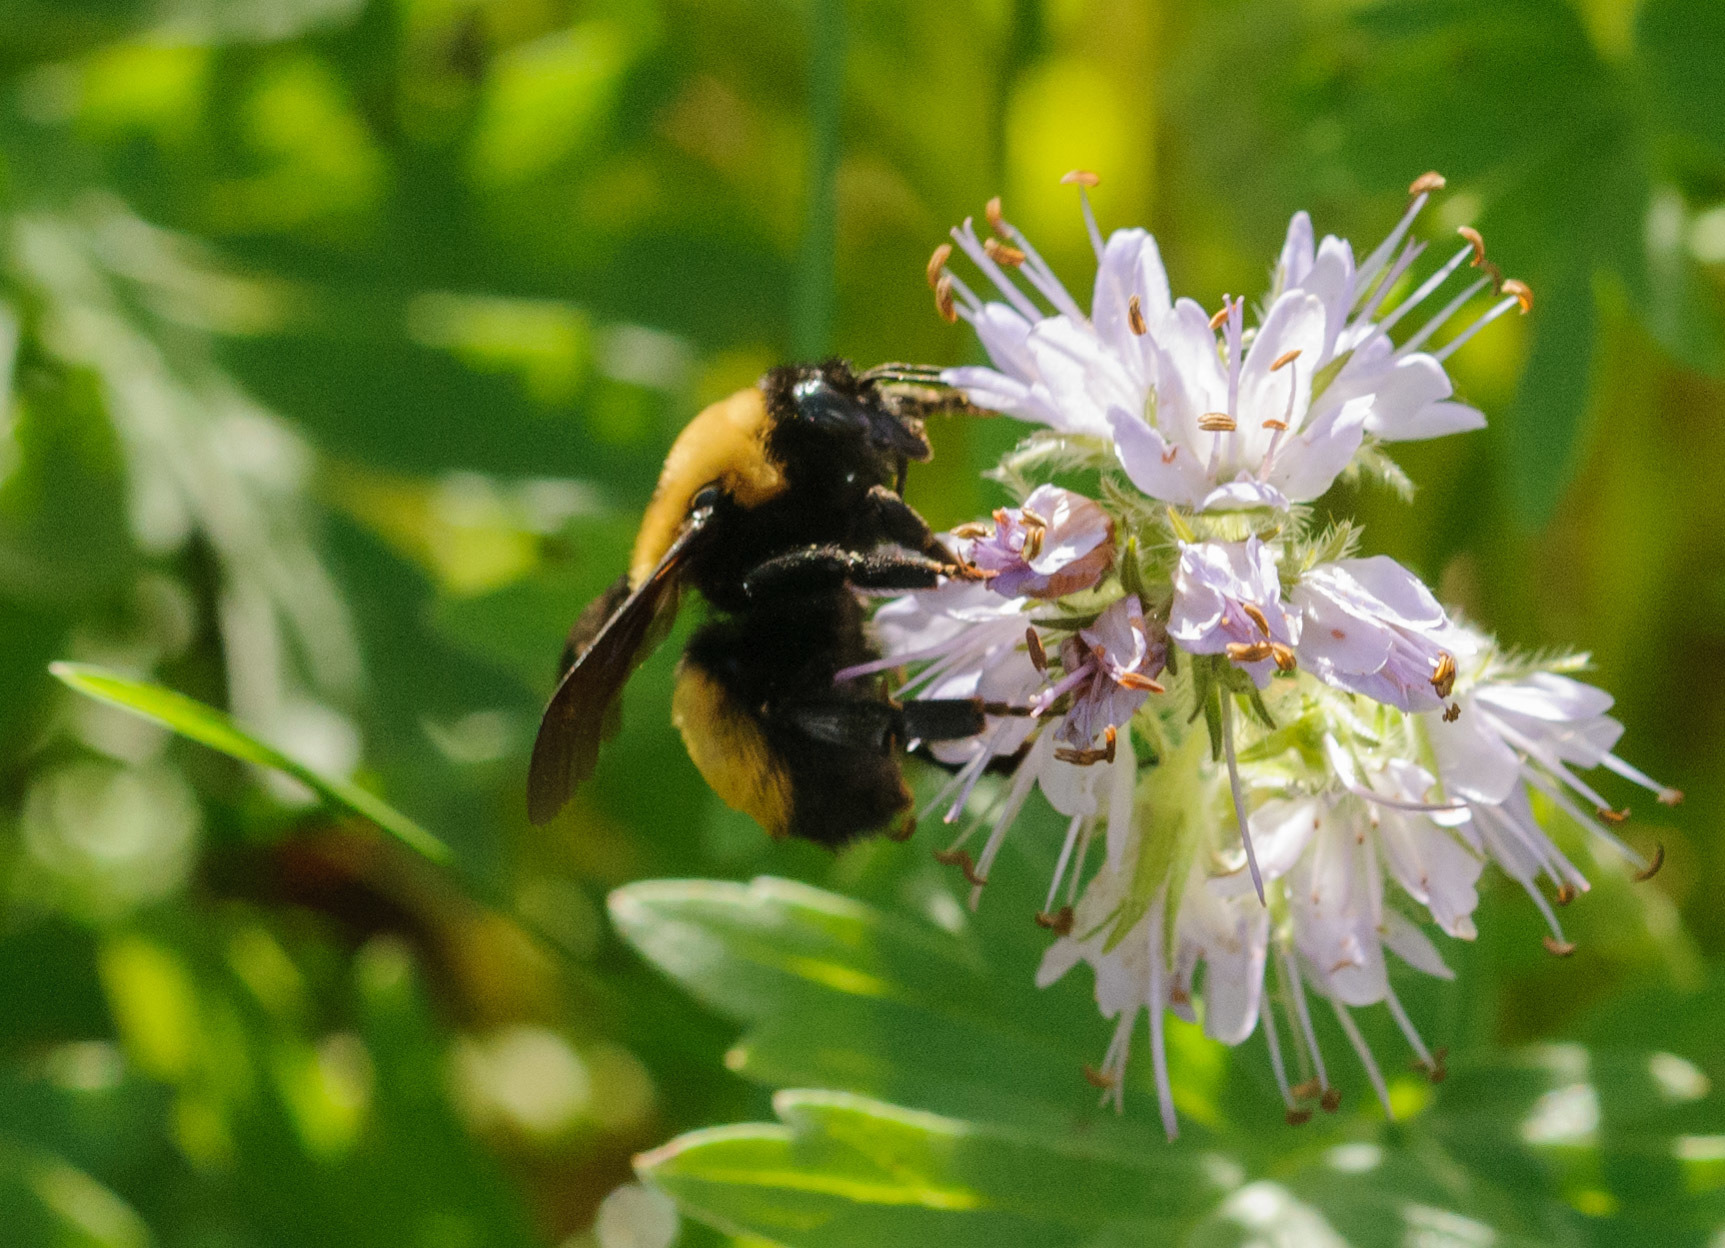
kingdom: Animalia
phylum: Arthropoda
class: Insecta
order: Hymenoptera
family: Apidae
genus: Bombus
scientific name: Bombus nevadensis
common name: Nevada bumble bee
